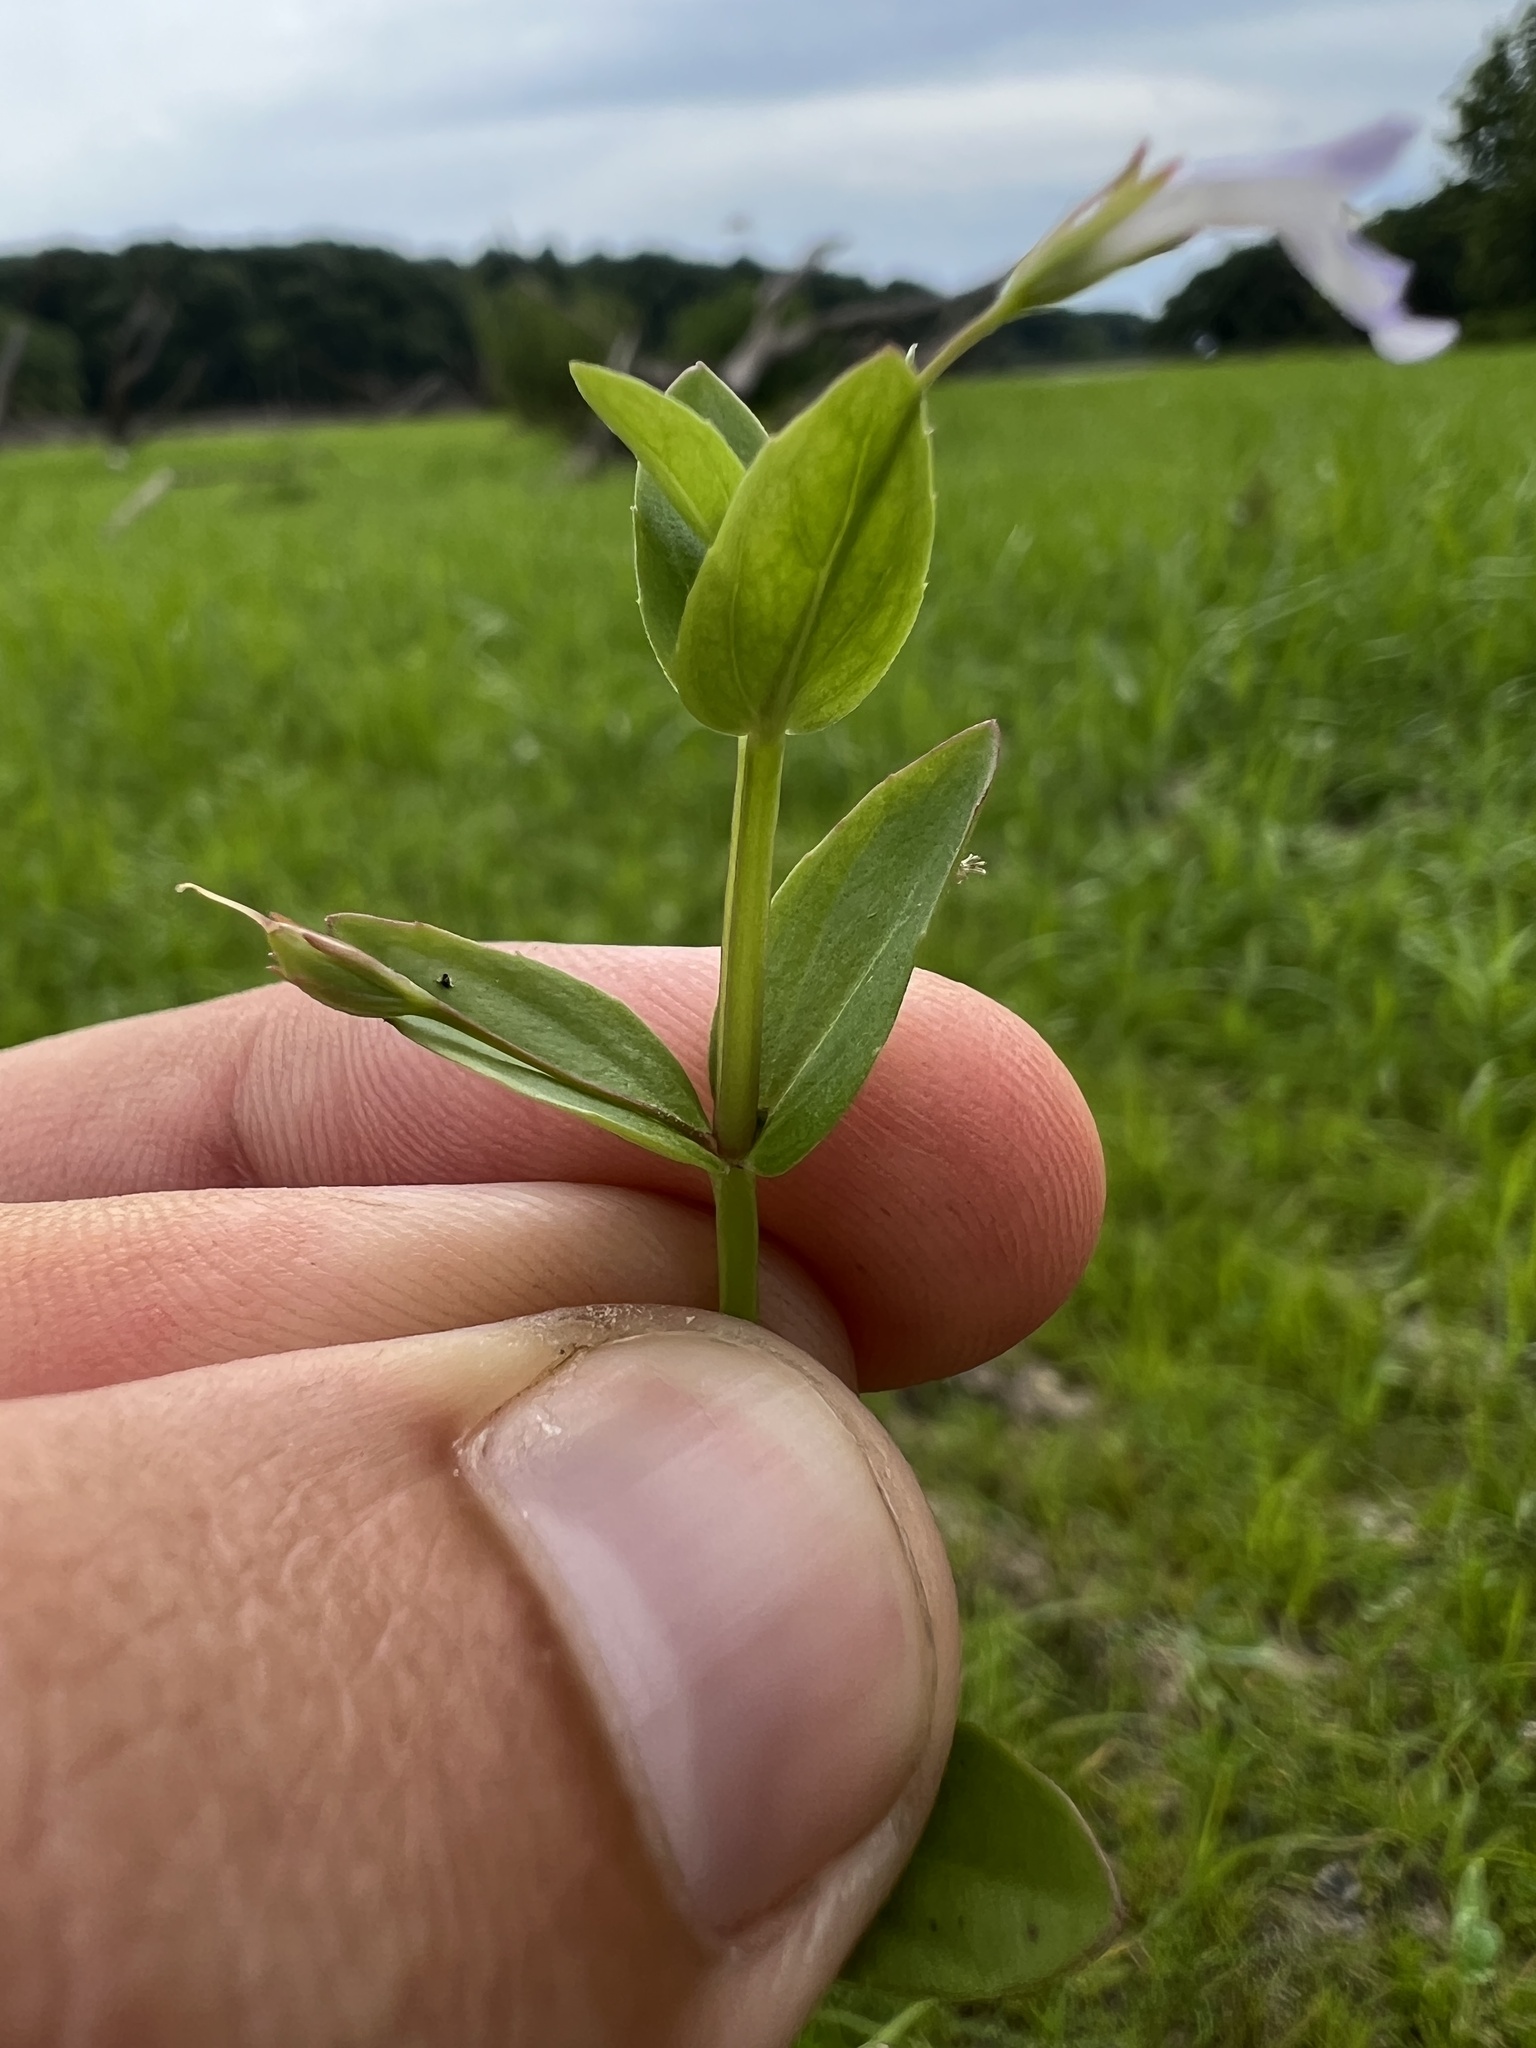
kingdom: Plantae
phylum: Tracheophyta
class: Magnoliopsida
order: Lamiales
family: Linderniaceae
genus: Lindernia
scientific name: Lindernia dubia
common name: Annual false pimpernel
